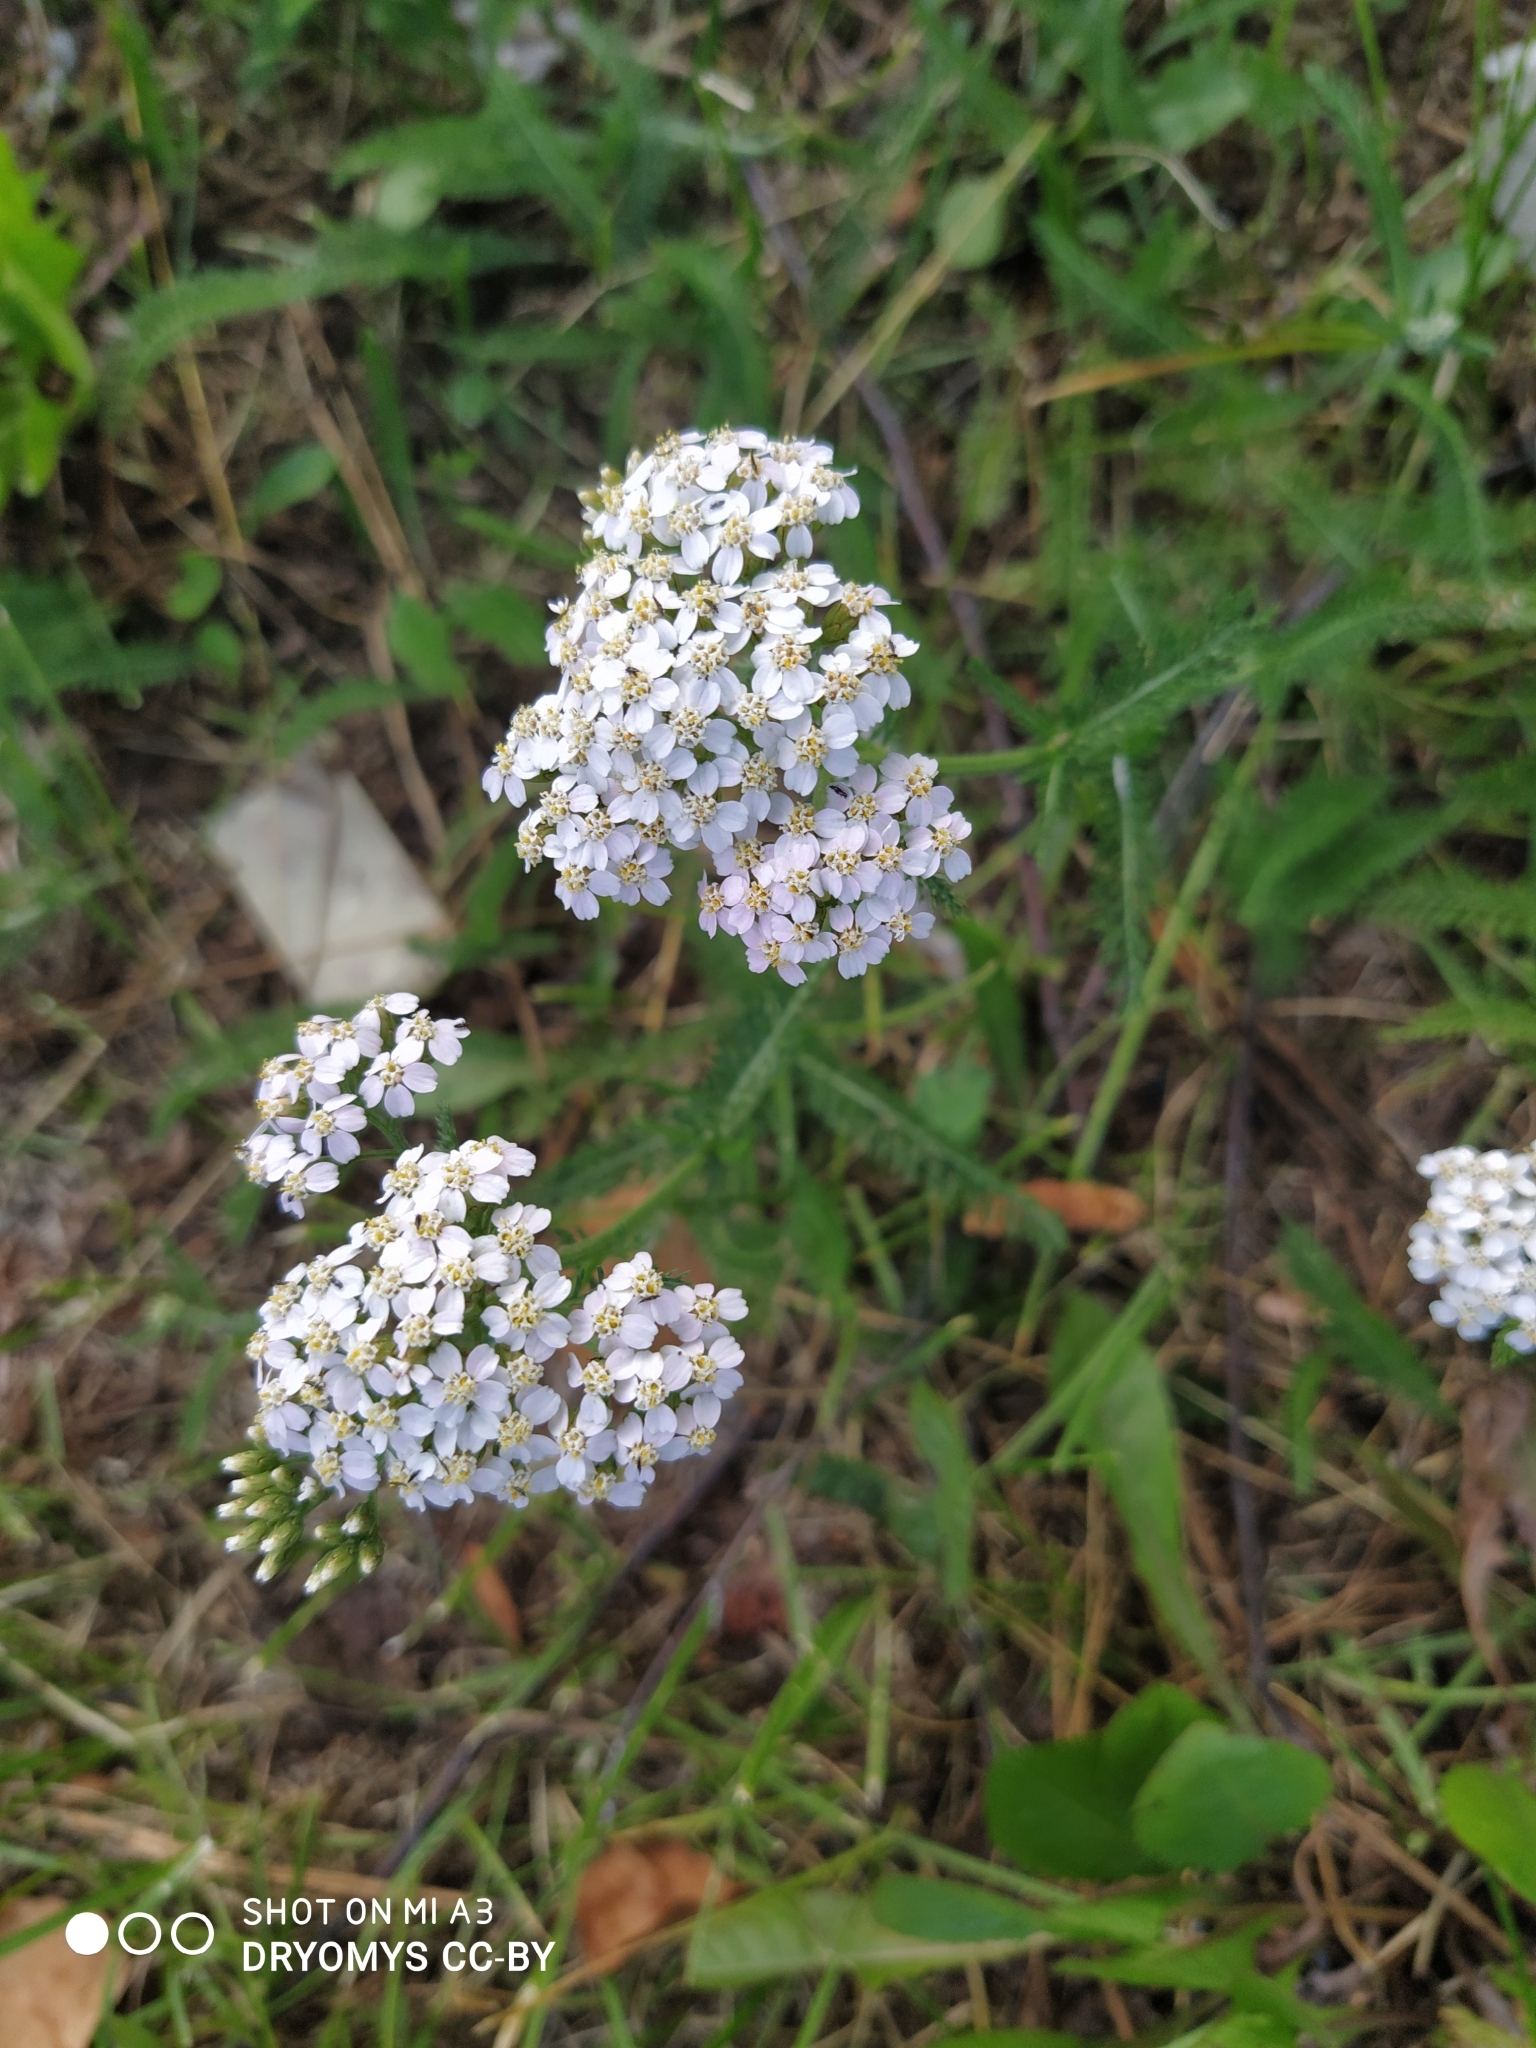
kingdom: Plantae
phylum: Tracheophyta
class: Magnoliopsida
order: Asterales
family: Asteraceae
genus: Achillea
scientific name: Achillea millefolium
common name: Yarrow
